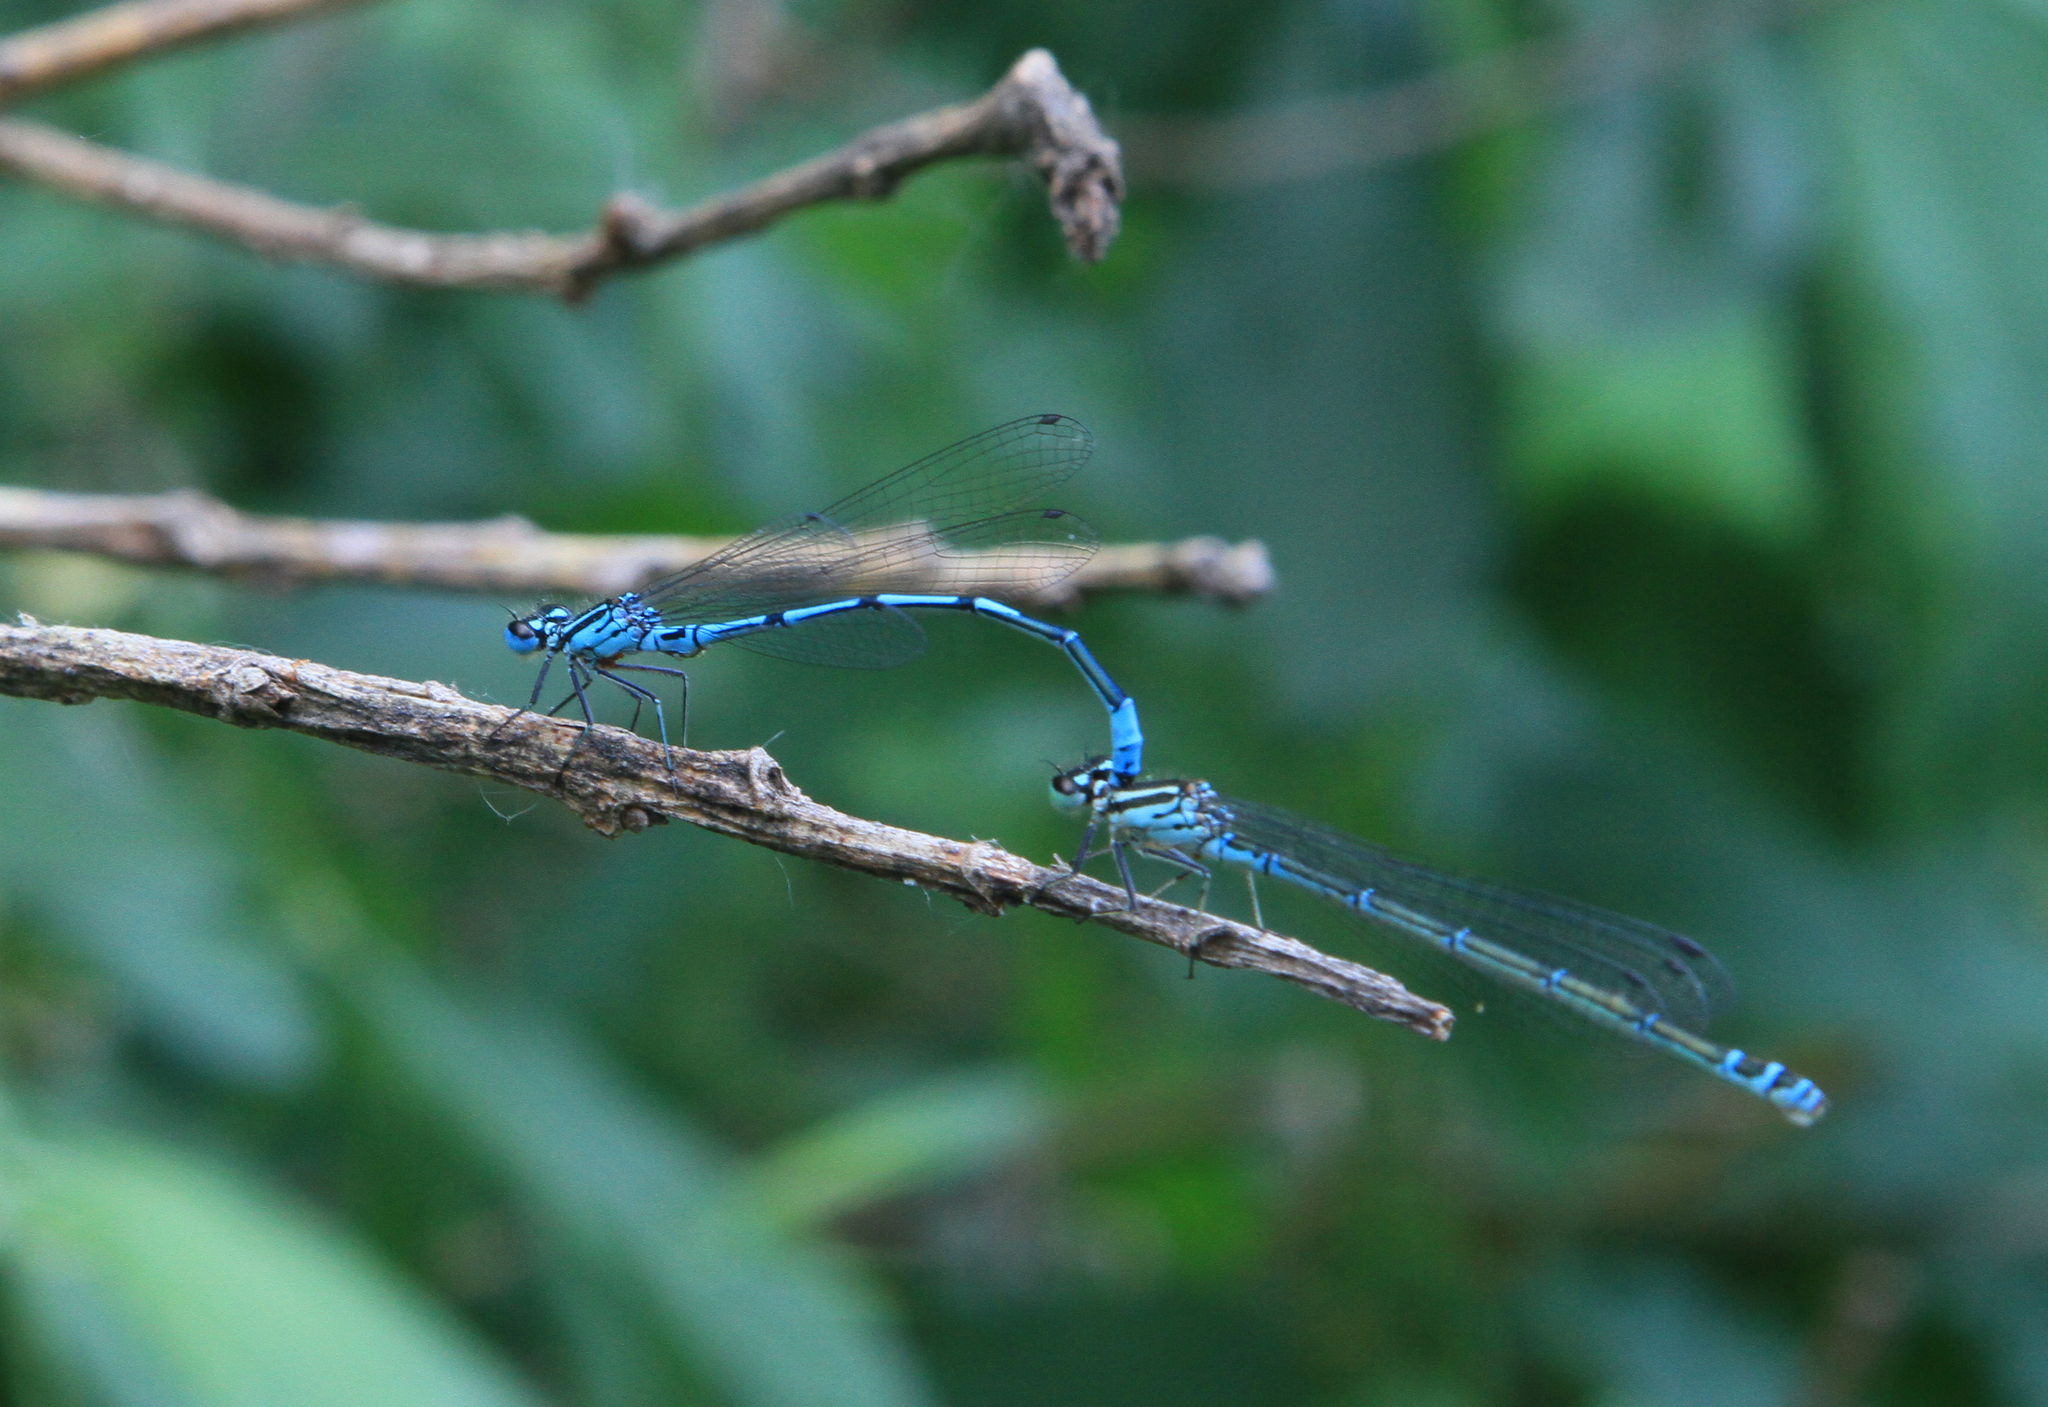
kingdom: Animalia
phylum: Arthropoda
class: Insecta
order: Odonata
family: Coenagrionidae
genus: Coenagrion
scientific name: Coenagrion puella
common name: Azure damselfly
